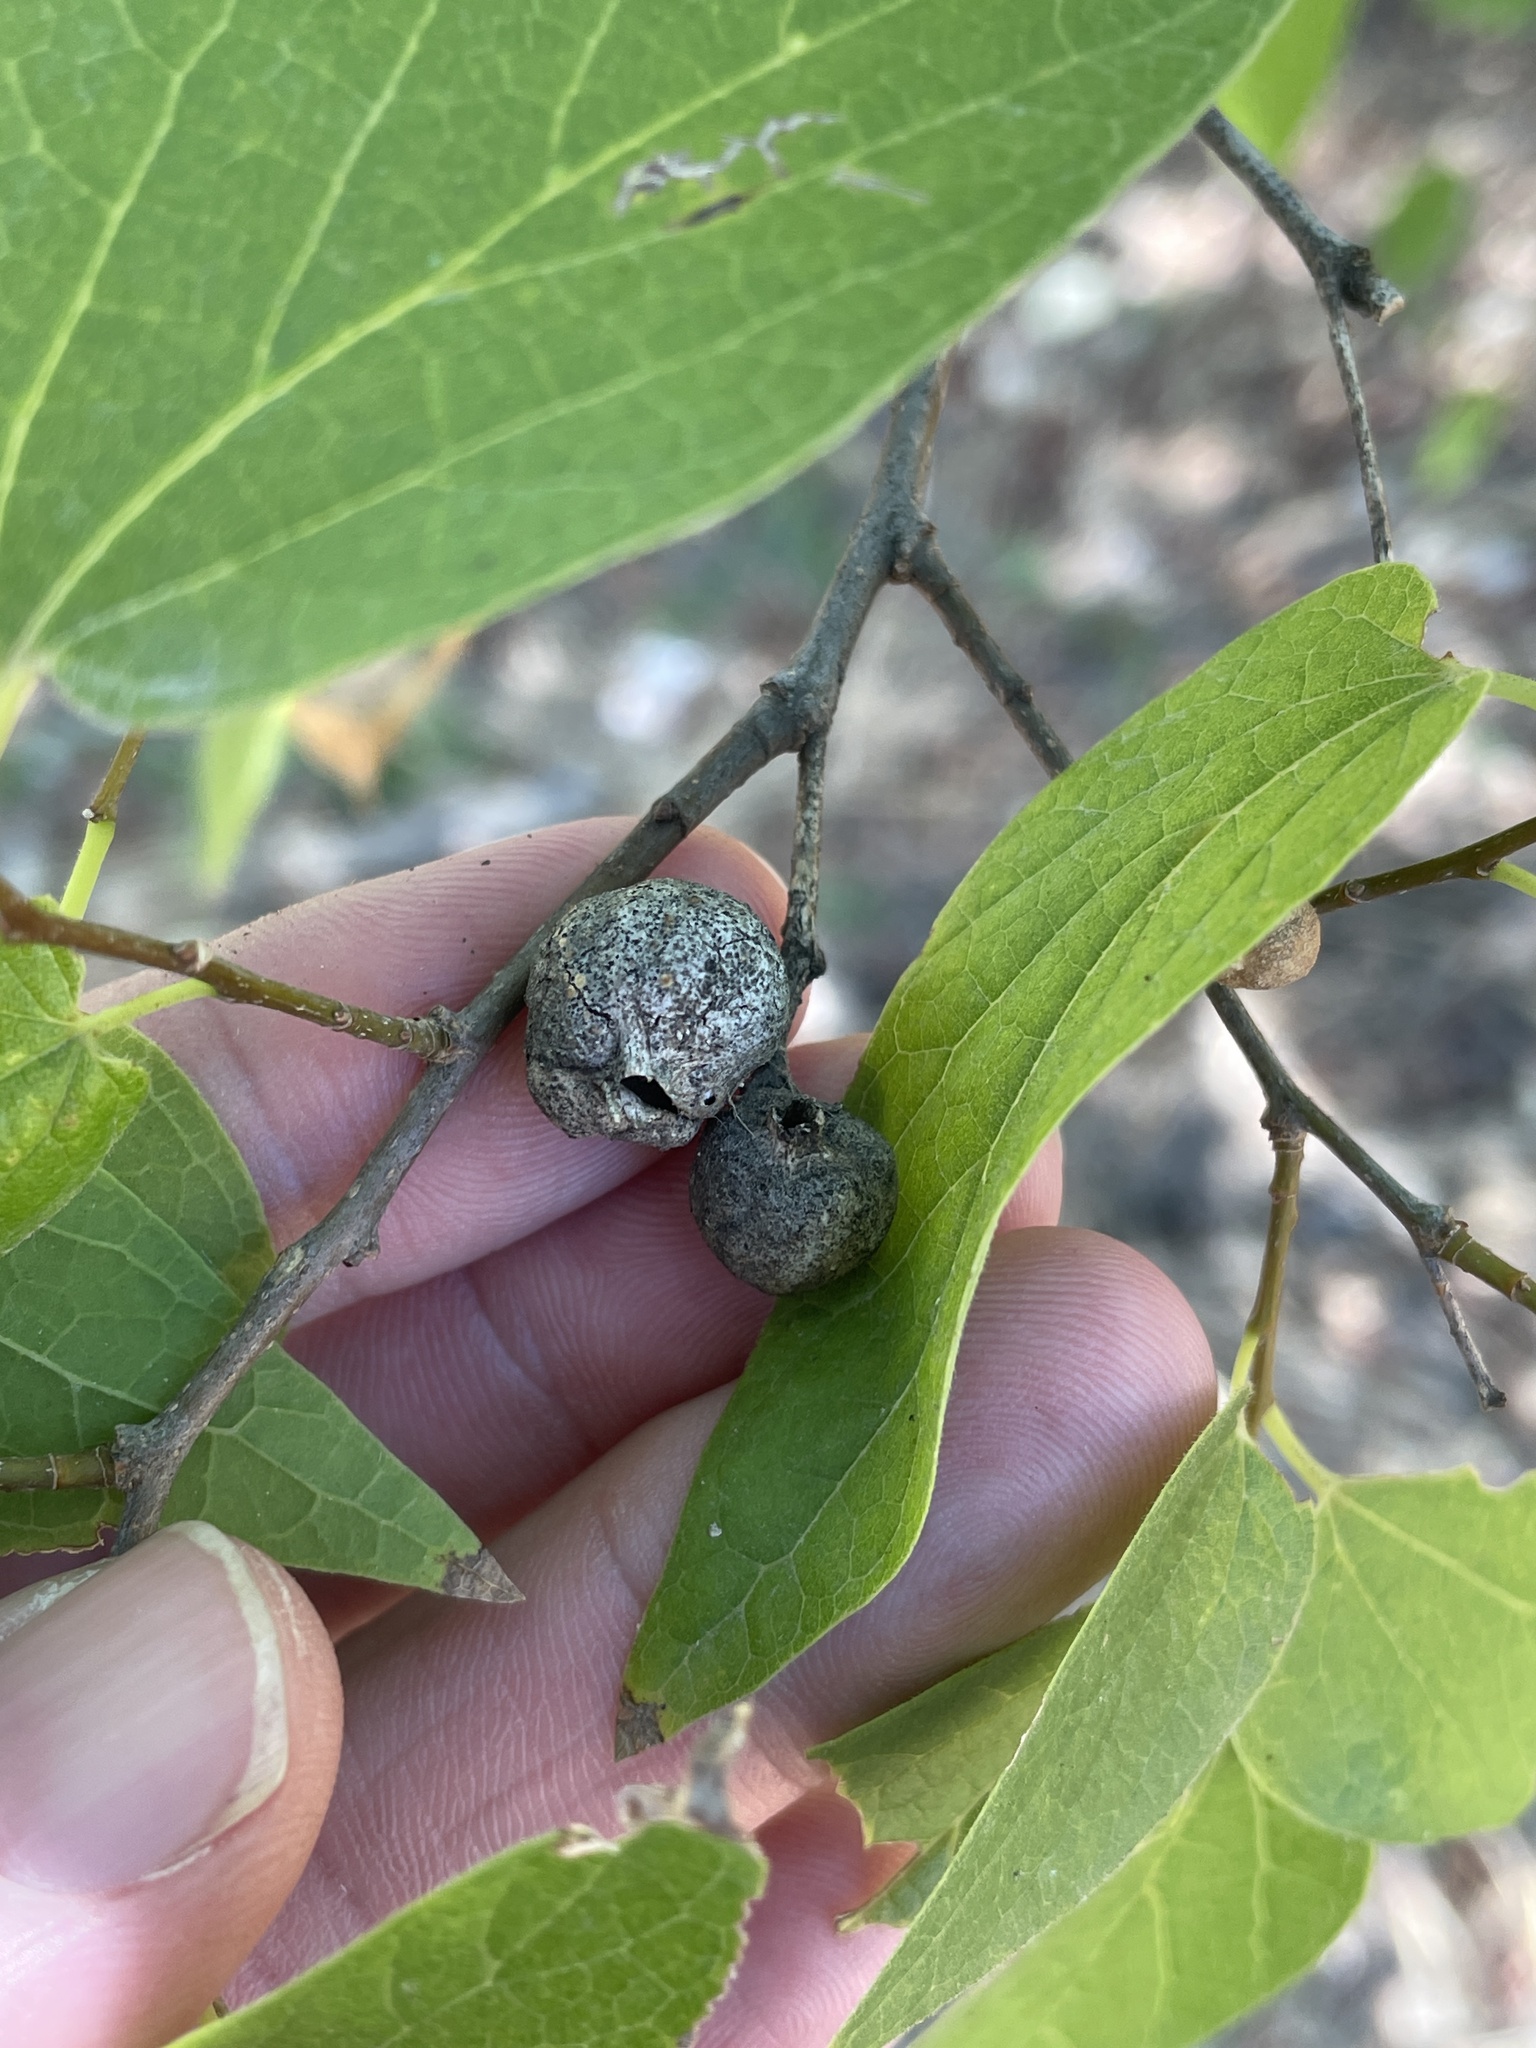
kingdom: Animalia
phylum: Arthropoda
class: Insecta
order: Hemiptera
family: Aphalaridae
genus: Pachypsylla
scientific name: Pachypsylla venusta
